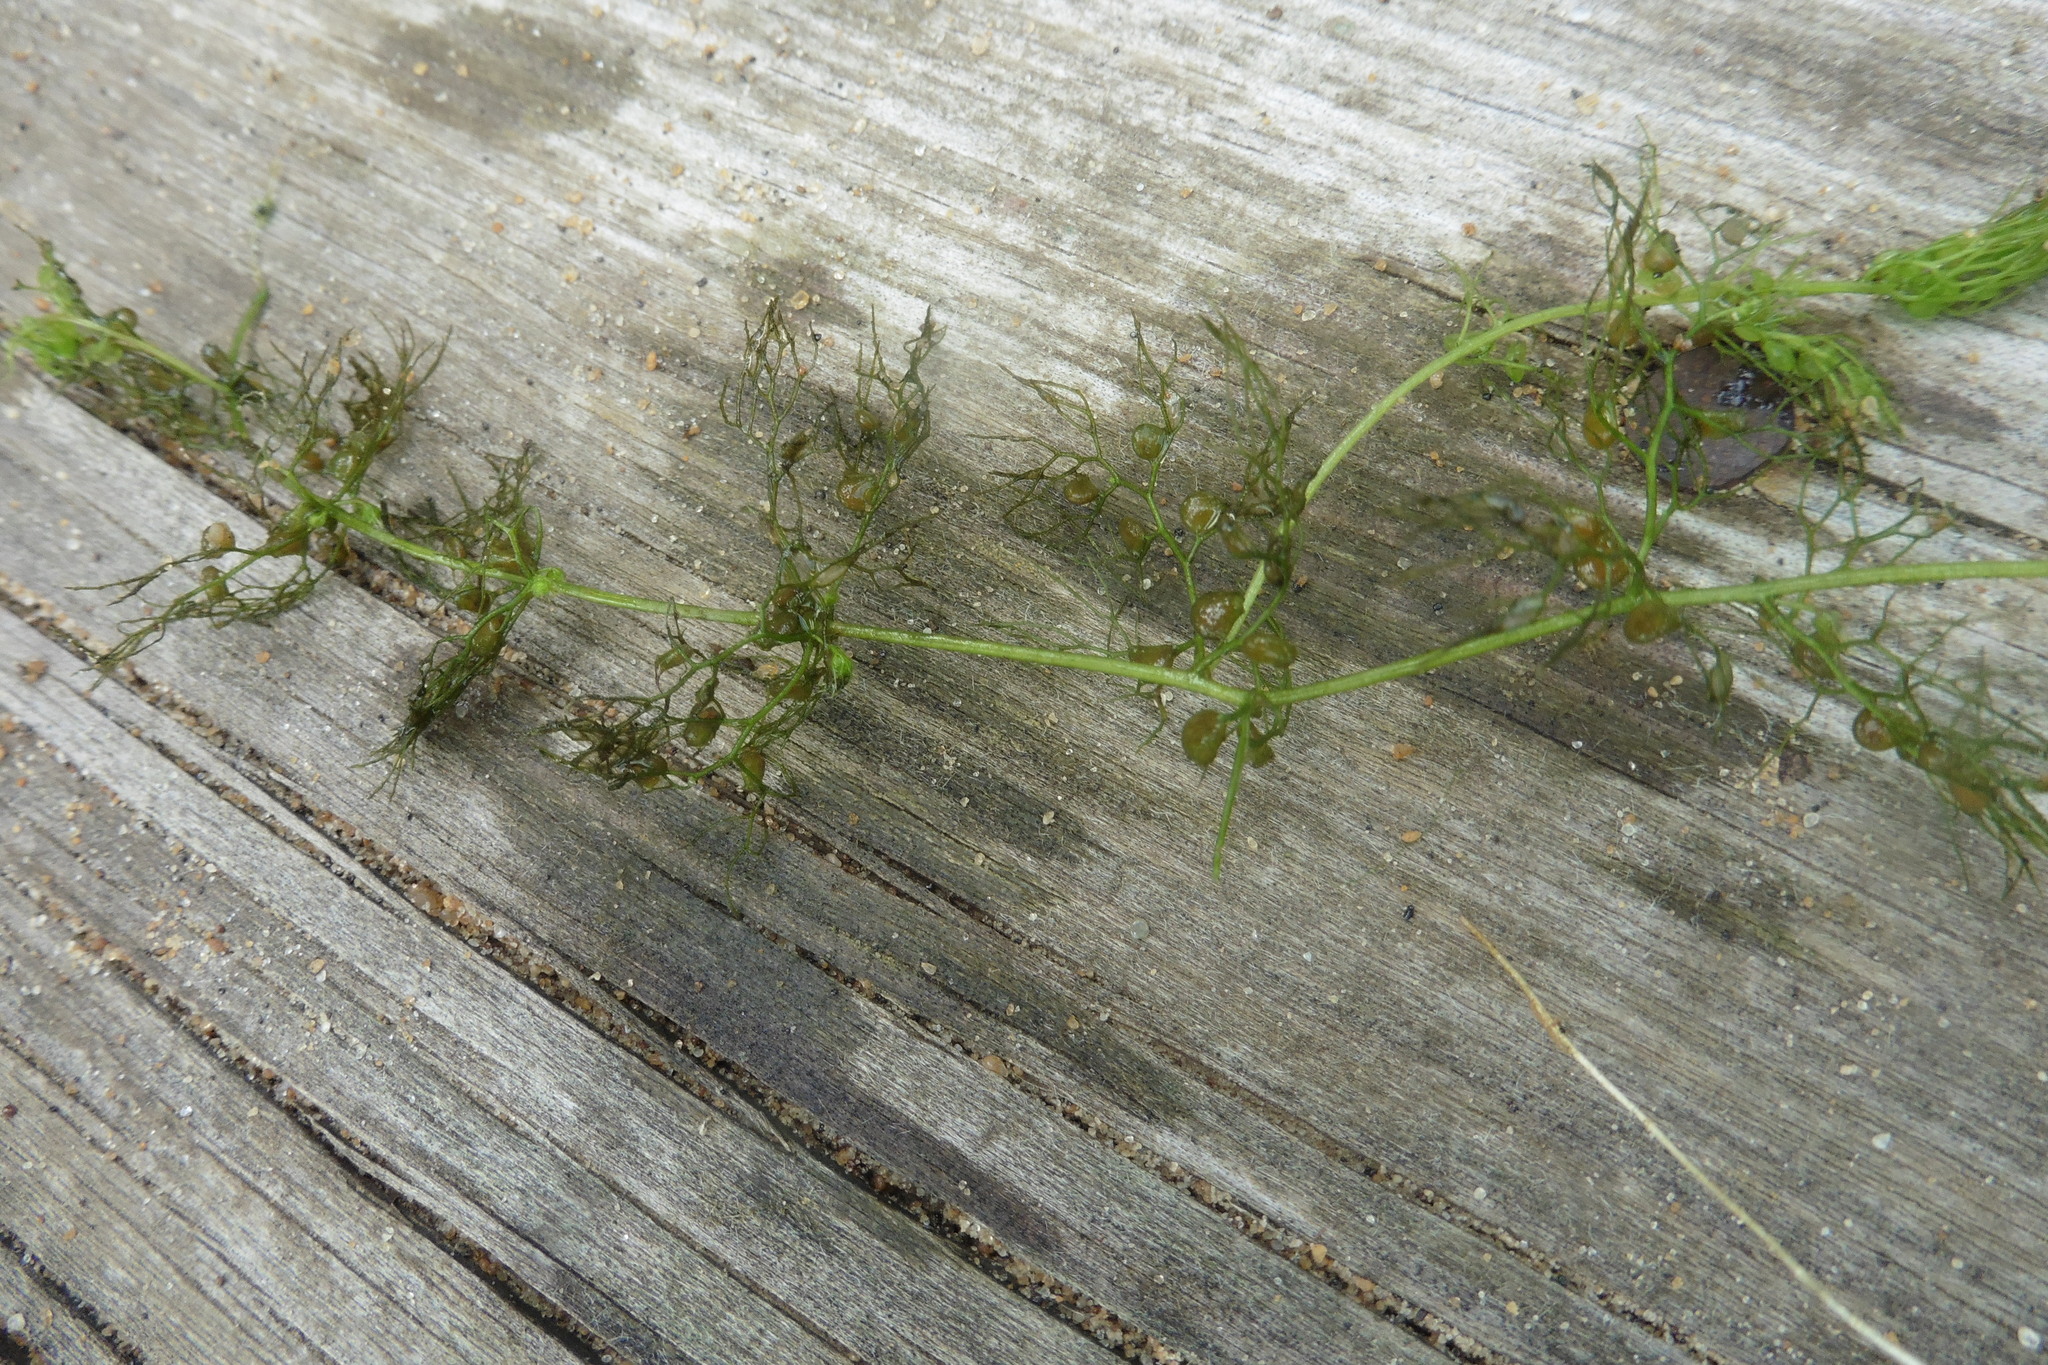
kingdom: Plantae
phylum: Tracheophyta
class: Magnoliopsida
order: Lamiales
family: Lentibulariaceae
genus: Utricularia
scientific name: Utricularia vulgaris
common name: Greater bladderwort
